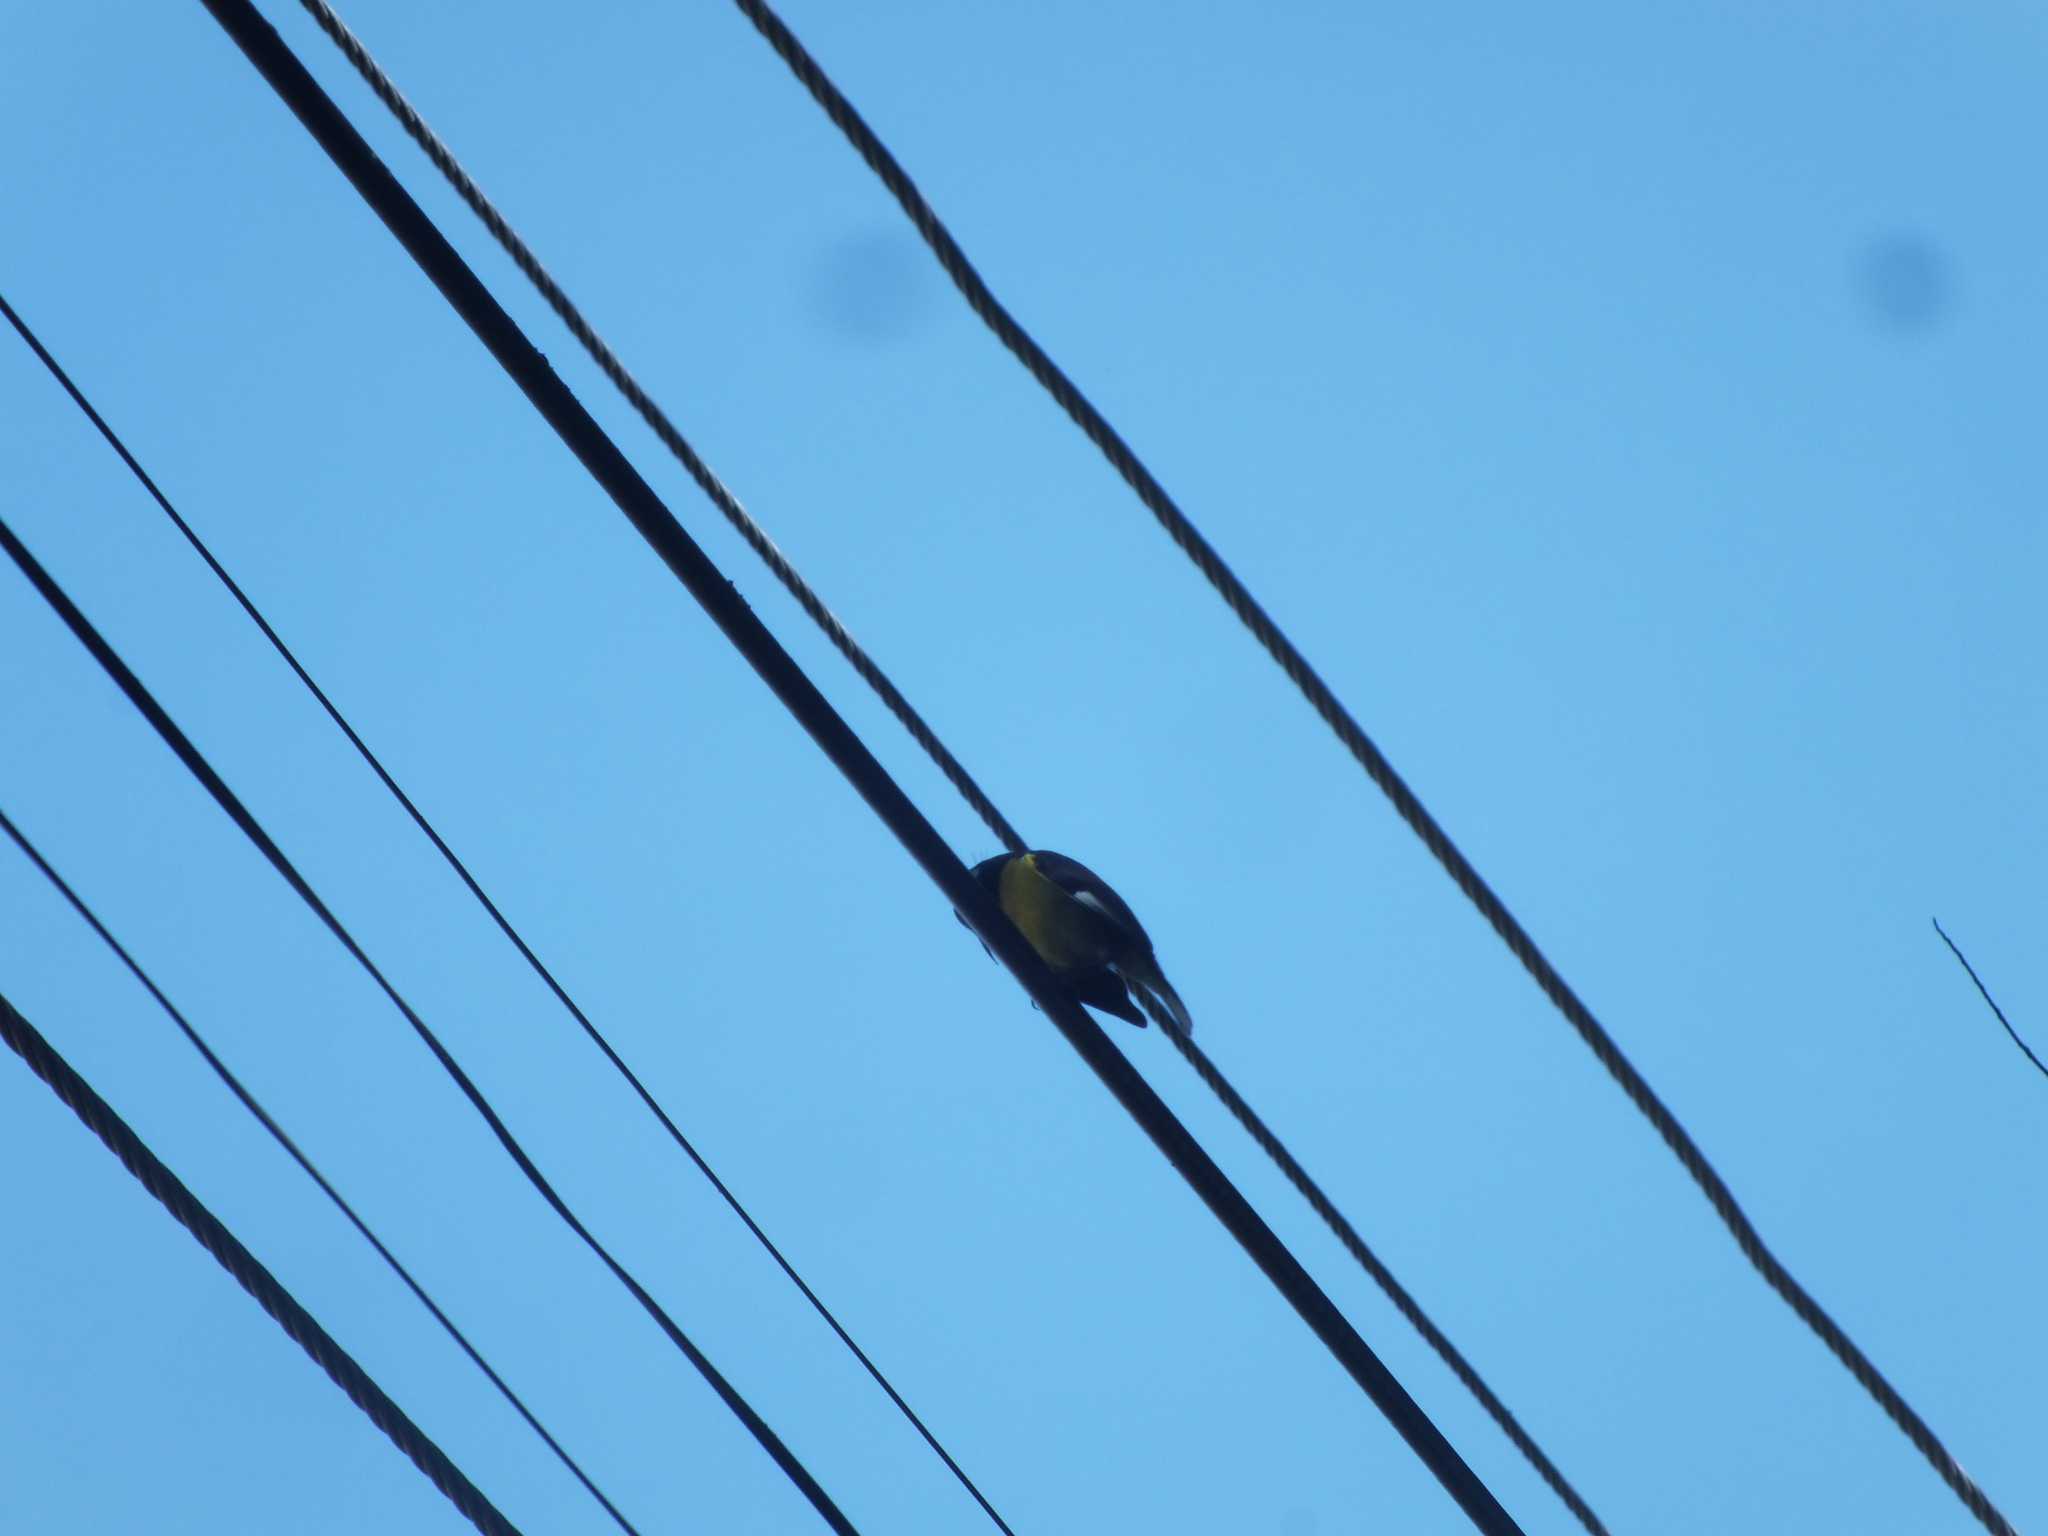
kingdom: Animalia
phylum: Chordata
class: Squamata
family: Dactyloidae
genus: Anolis
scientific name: Anolis grahami
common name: Graham's anole
